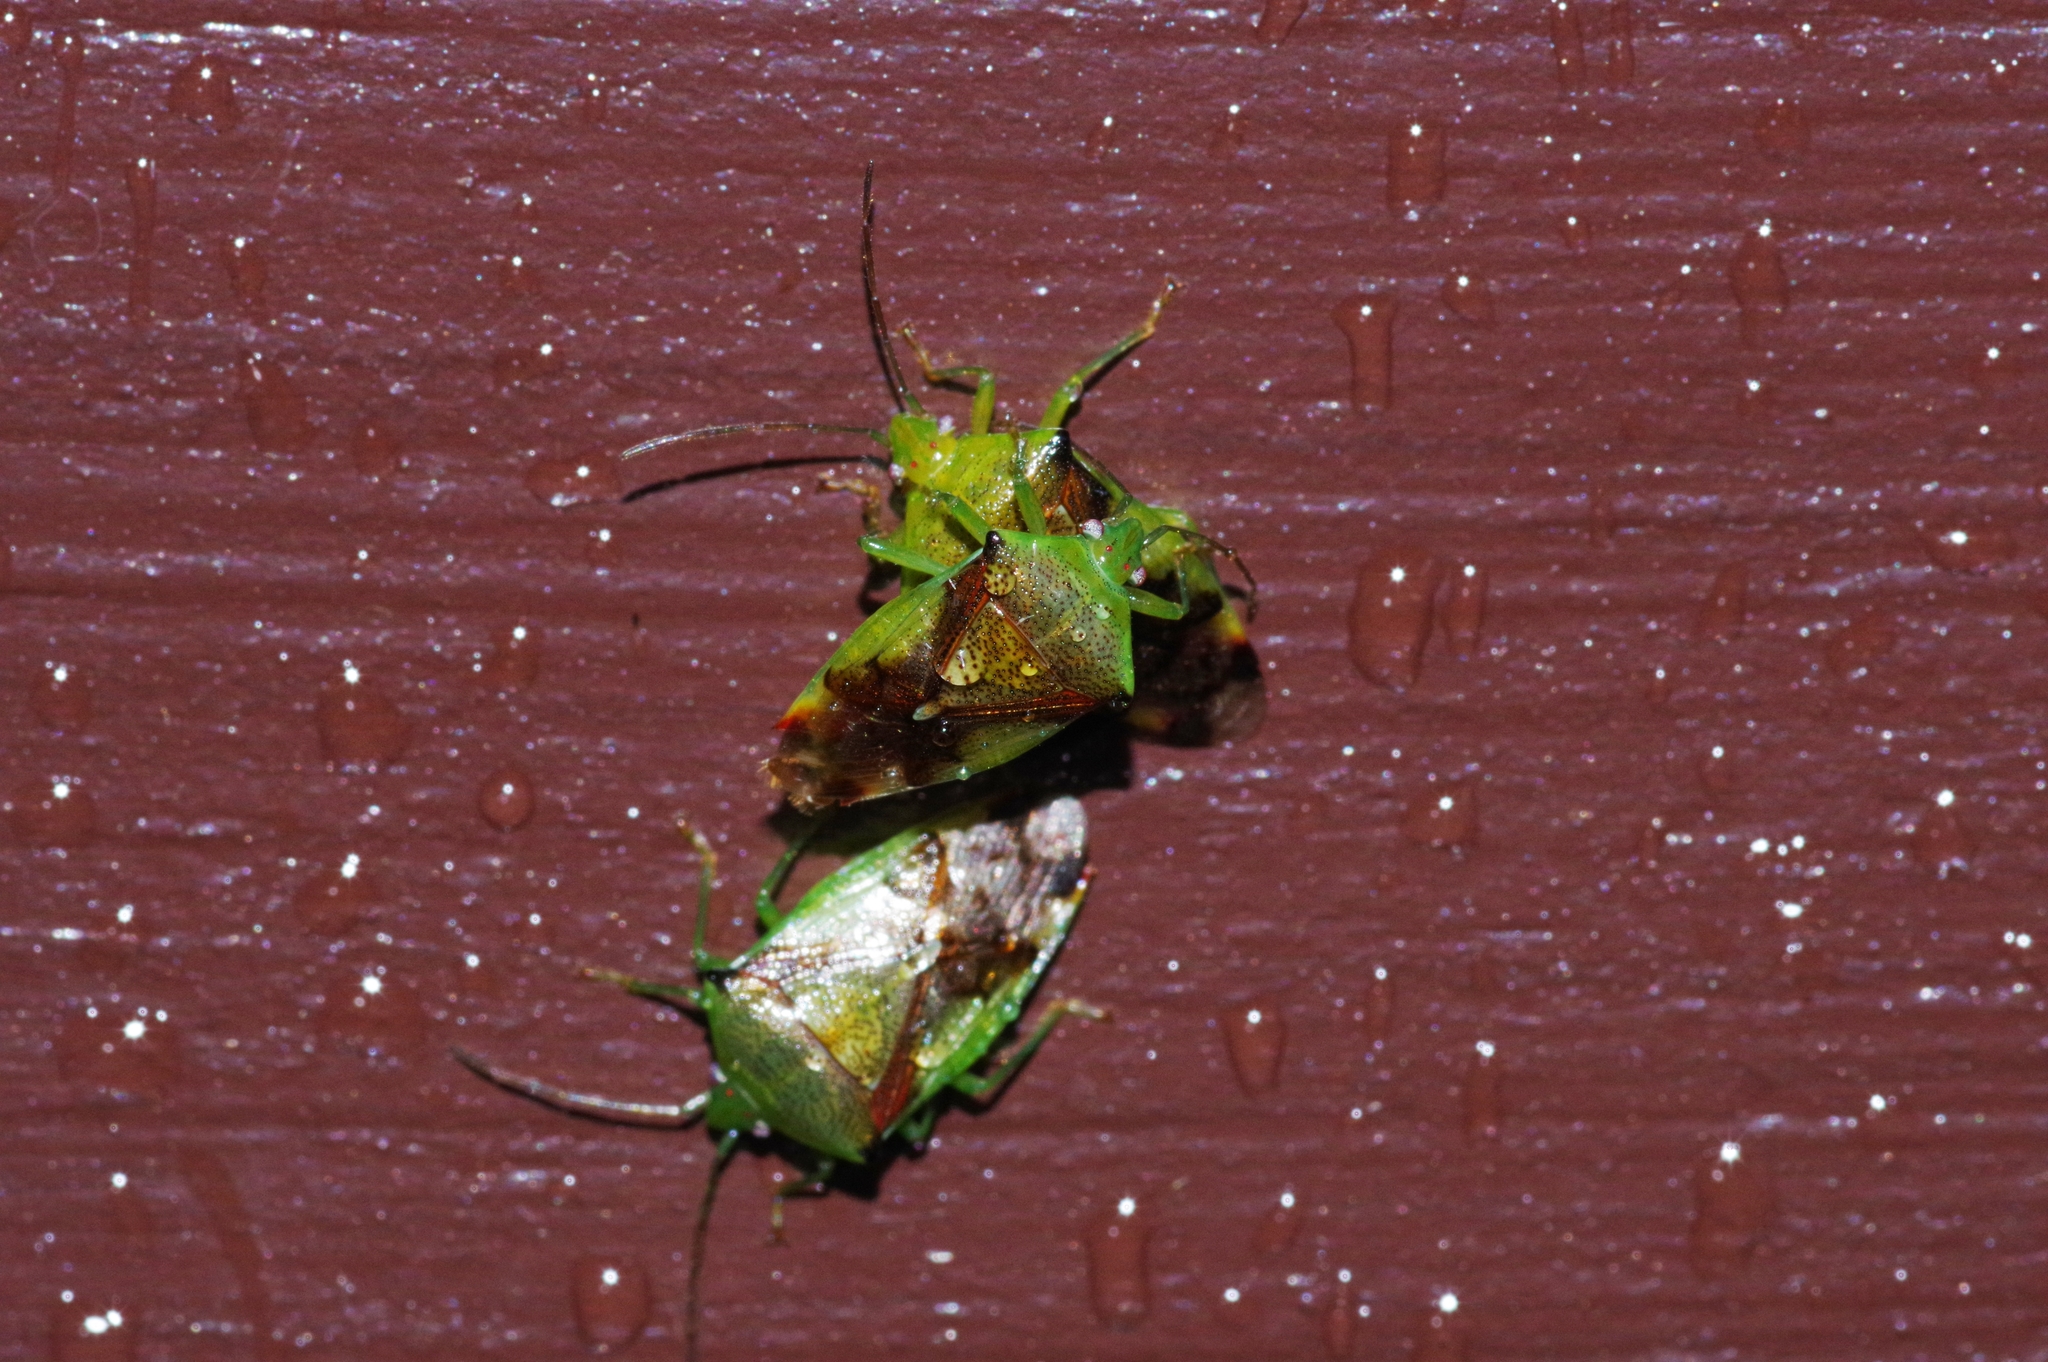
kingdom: Animalia
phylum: Arthropoda
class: Insecta
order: Hemiptera
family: Acanthosomatidae
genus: Elasmostethus
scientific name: Elasmostethus nubilus
